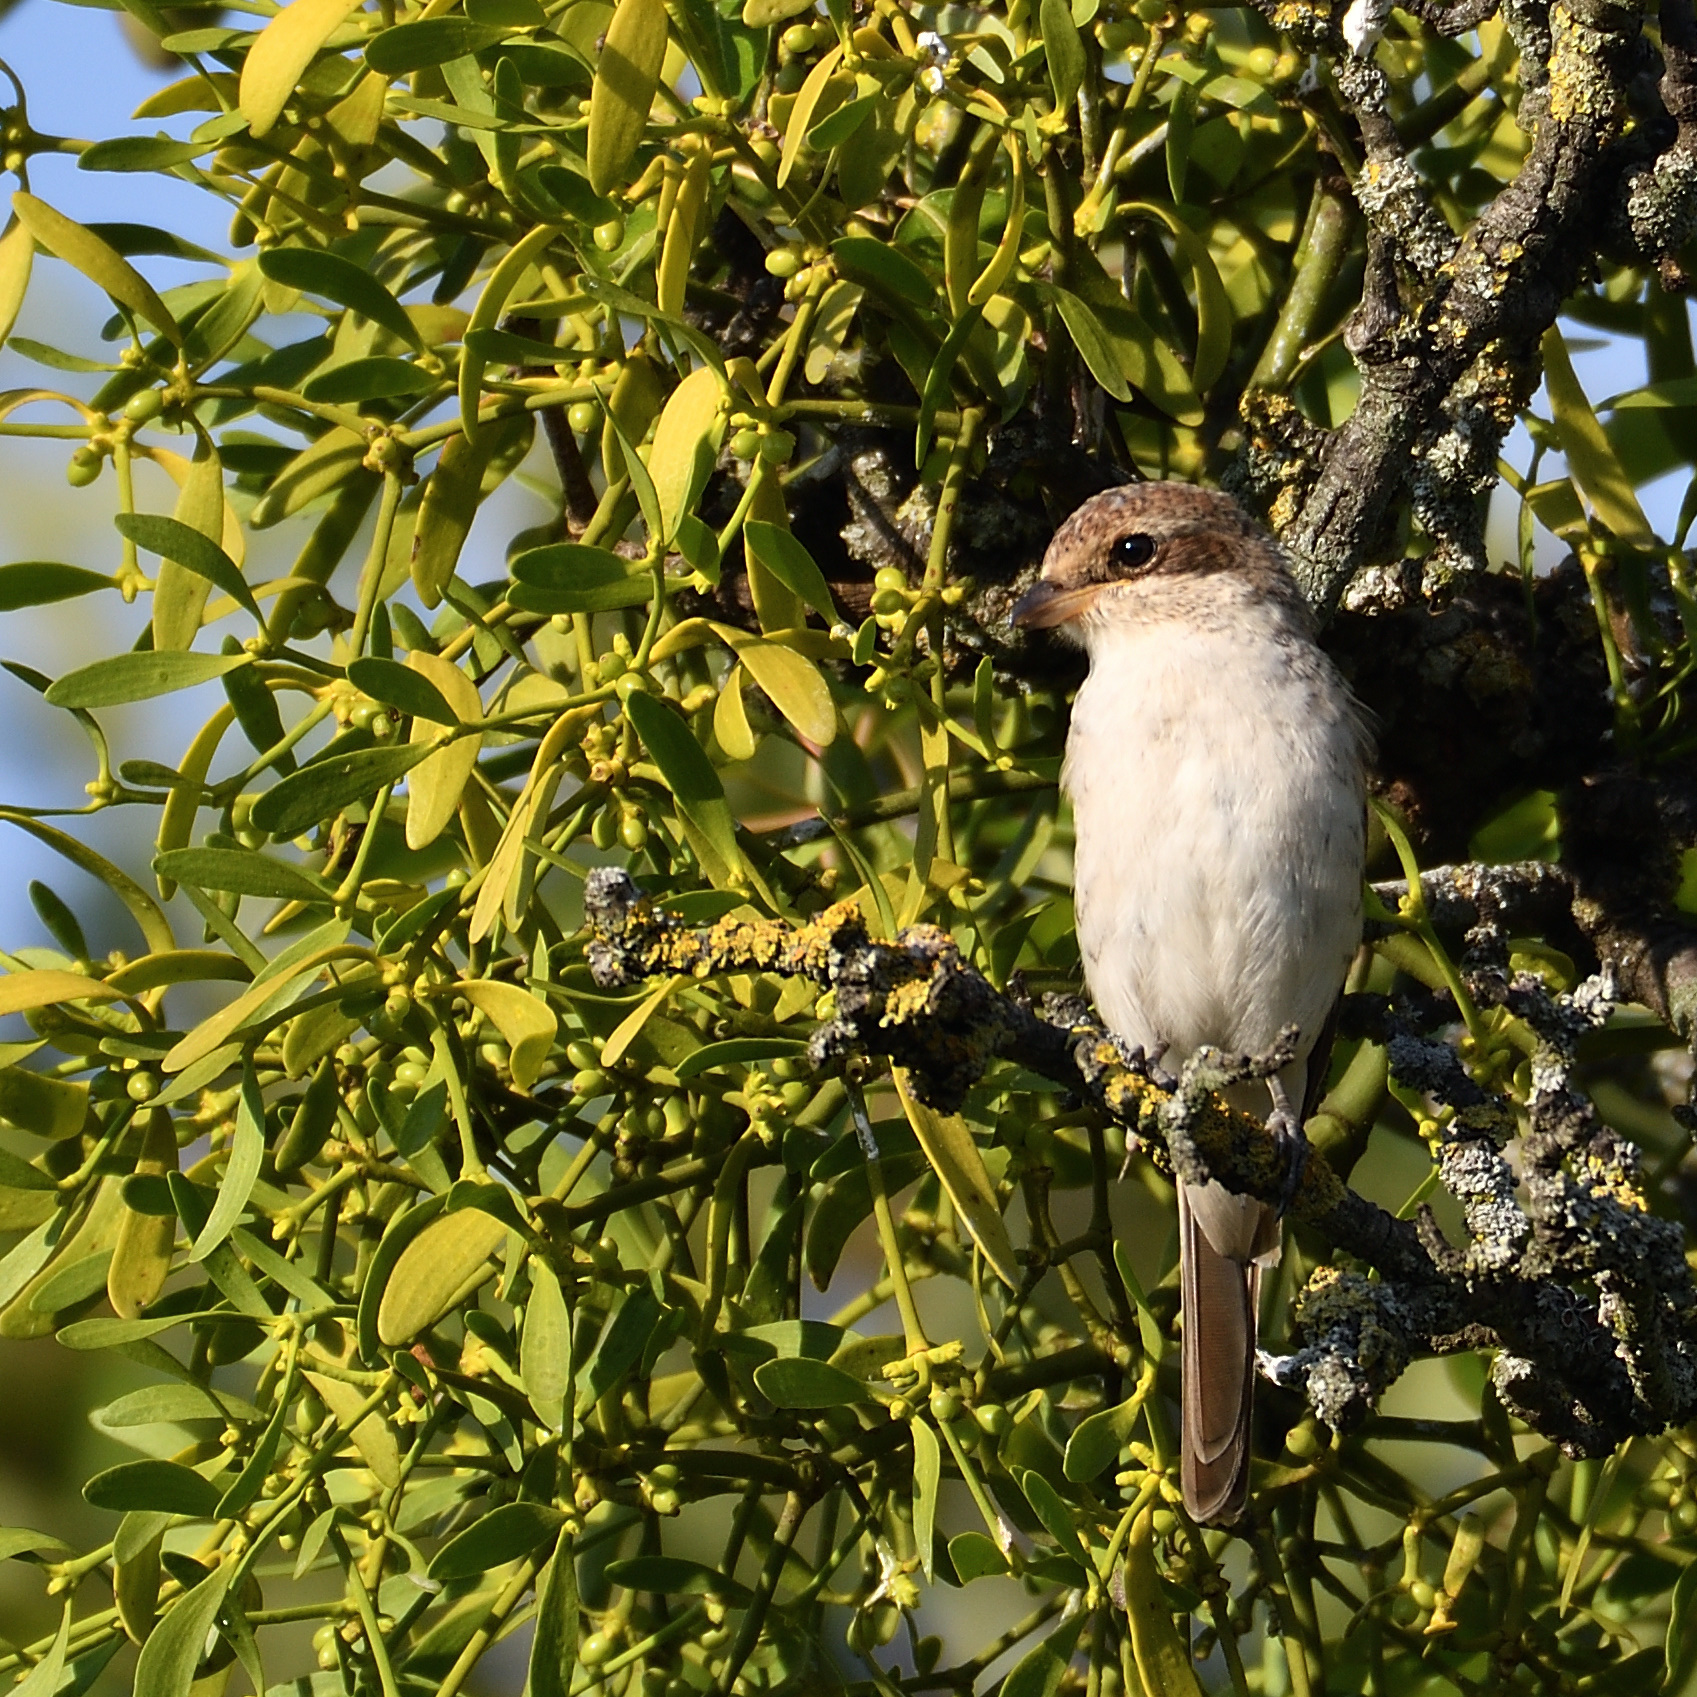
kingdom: Animalia
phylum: Chordata
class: Aves
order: Passeriformes
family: Laniidae
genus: Lanius
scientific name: Lanius collurio
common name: Red-backed shrike
